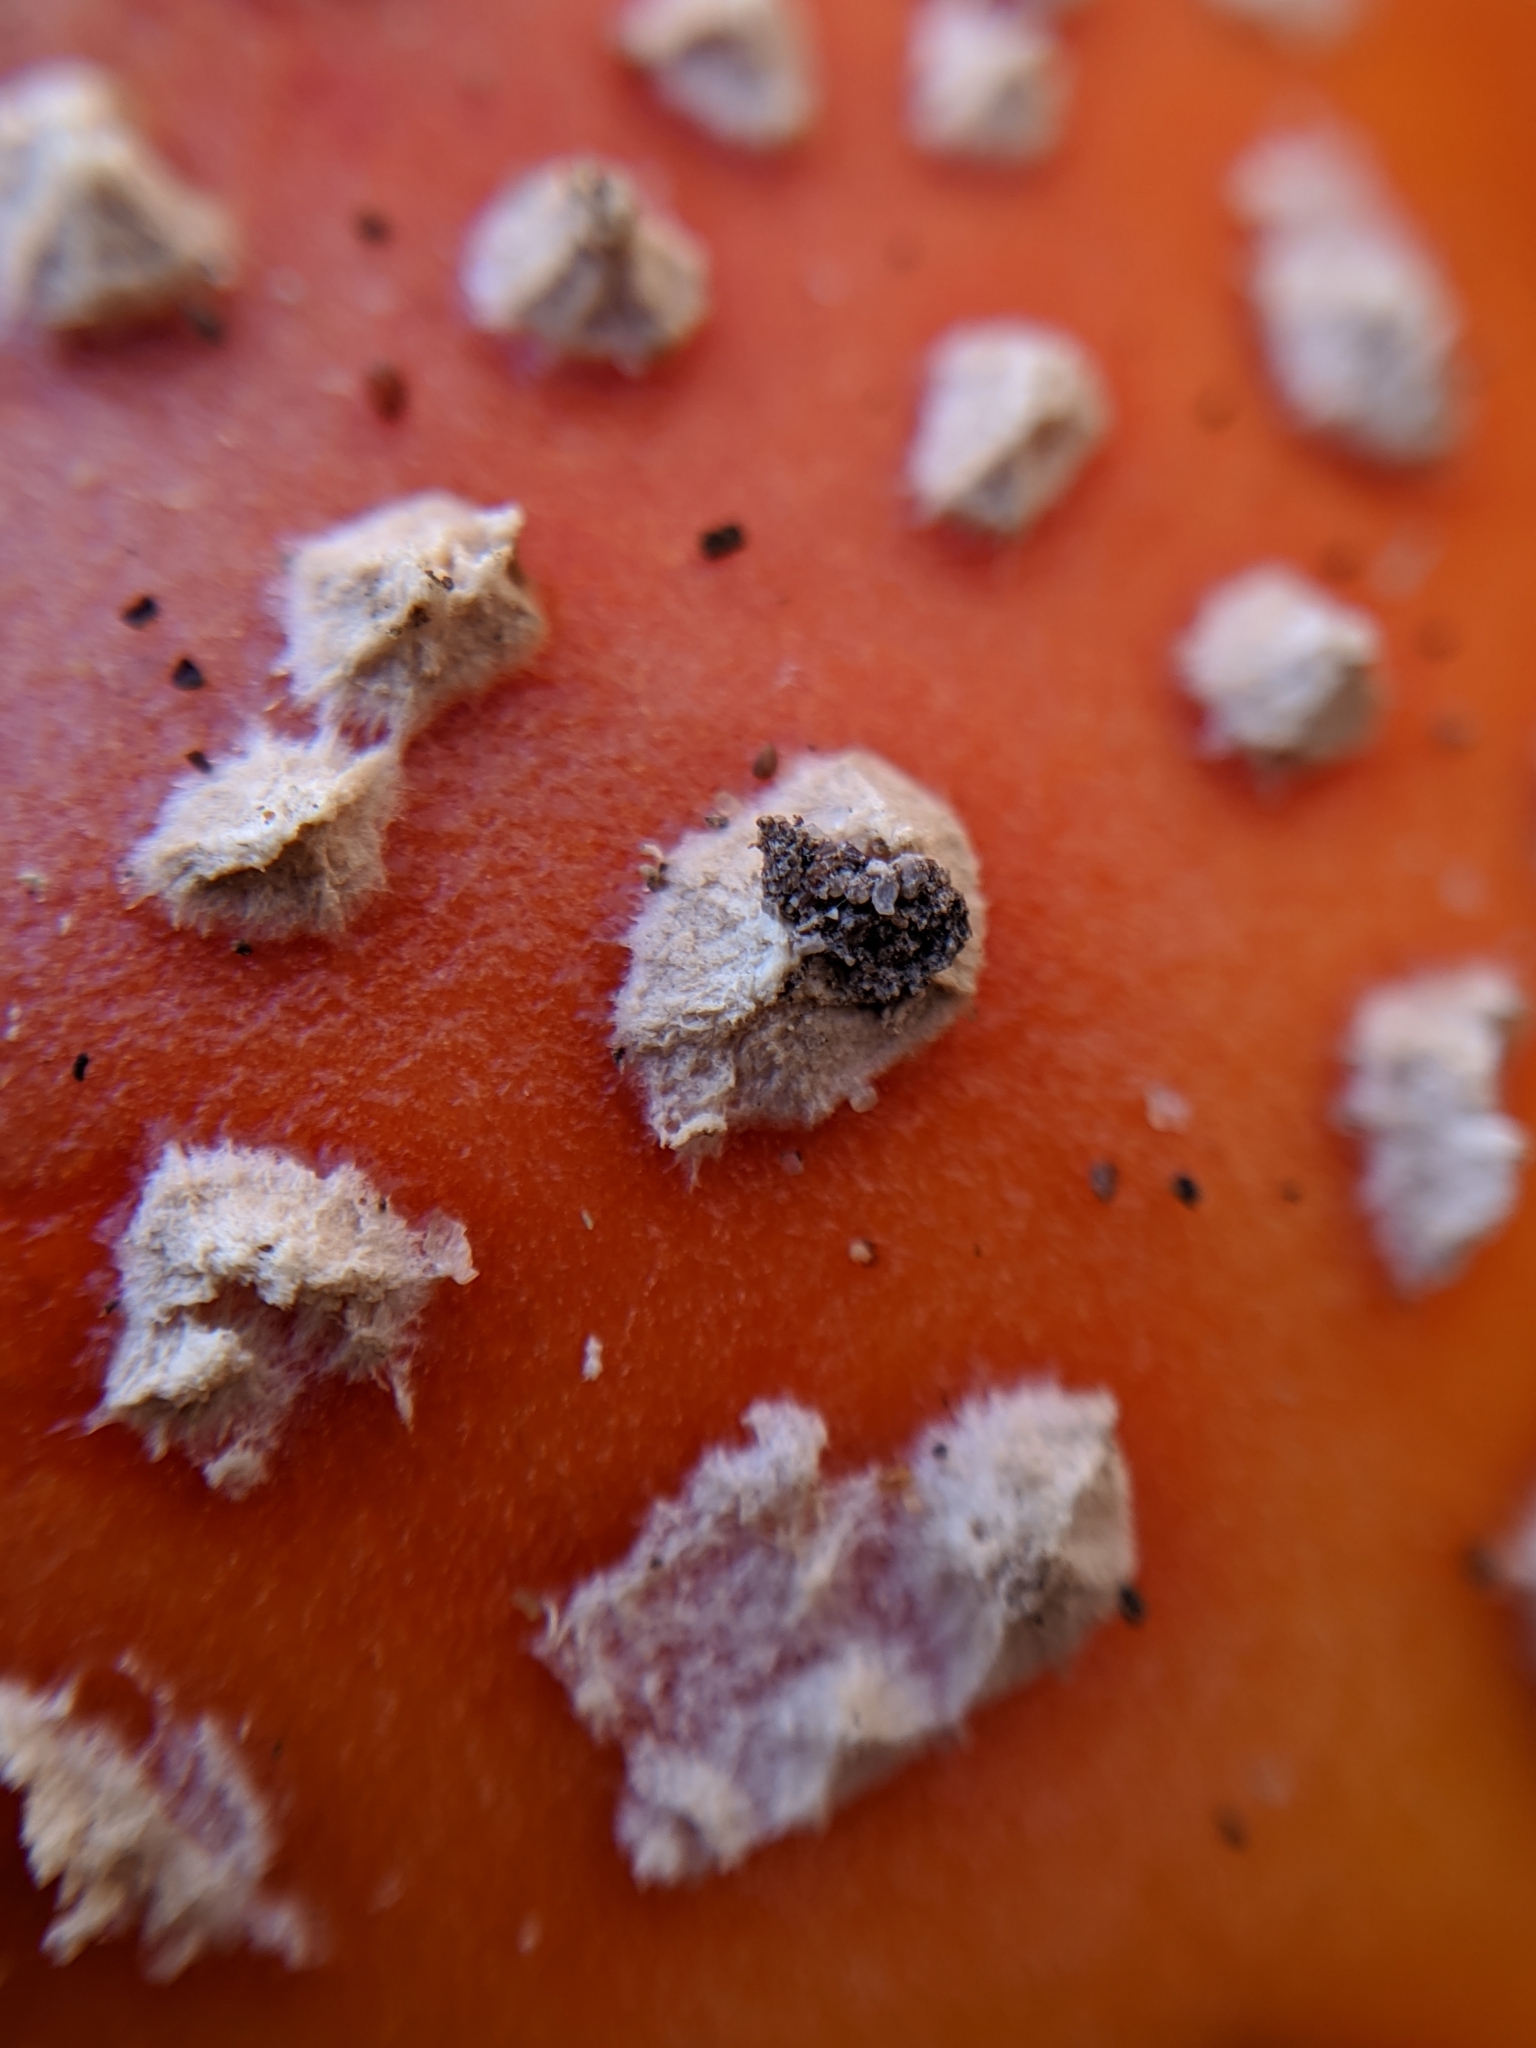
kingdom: Fungi
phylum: Basidiomycota
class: Agaricomycetes
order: Agaricales
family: Amanitaceae
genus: Amanita
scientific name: Amanita muscaria
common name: Fly agaric
